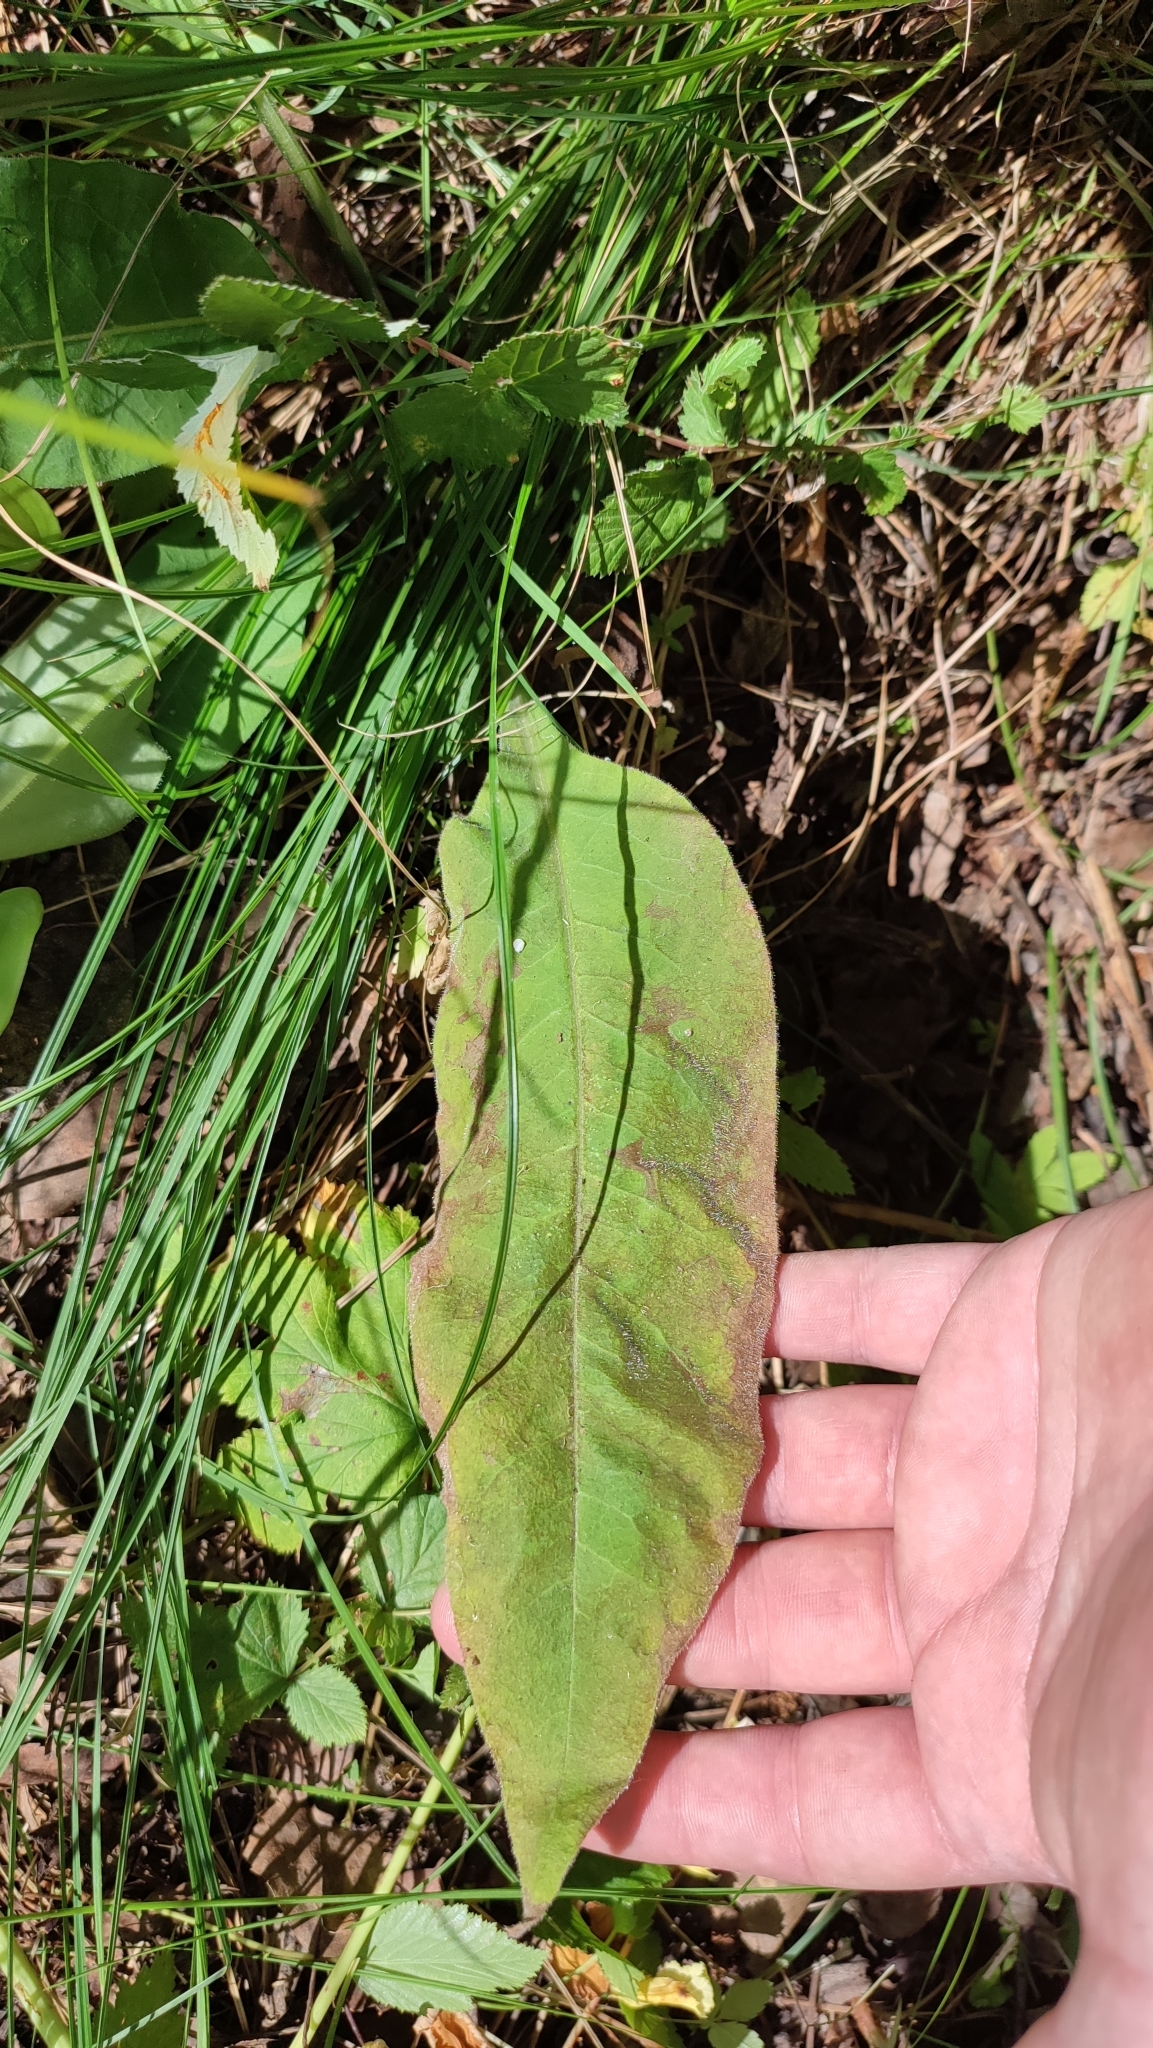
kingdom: Plantae
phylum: Tracheophyta
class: Magnoliopsida
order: Boraginales
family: Boraginaceae
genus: Pulmonaria
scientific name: Pulmonaria mollis
